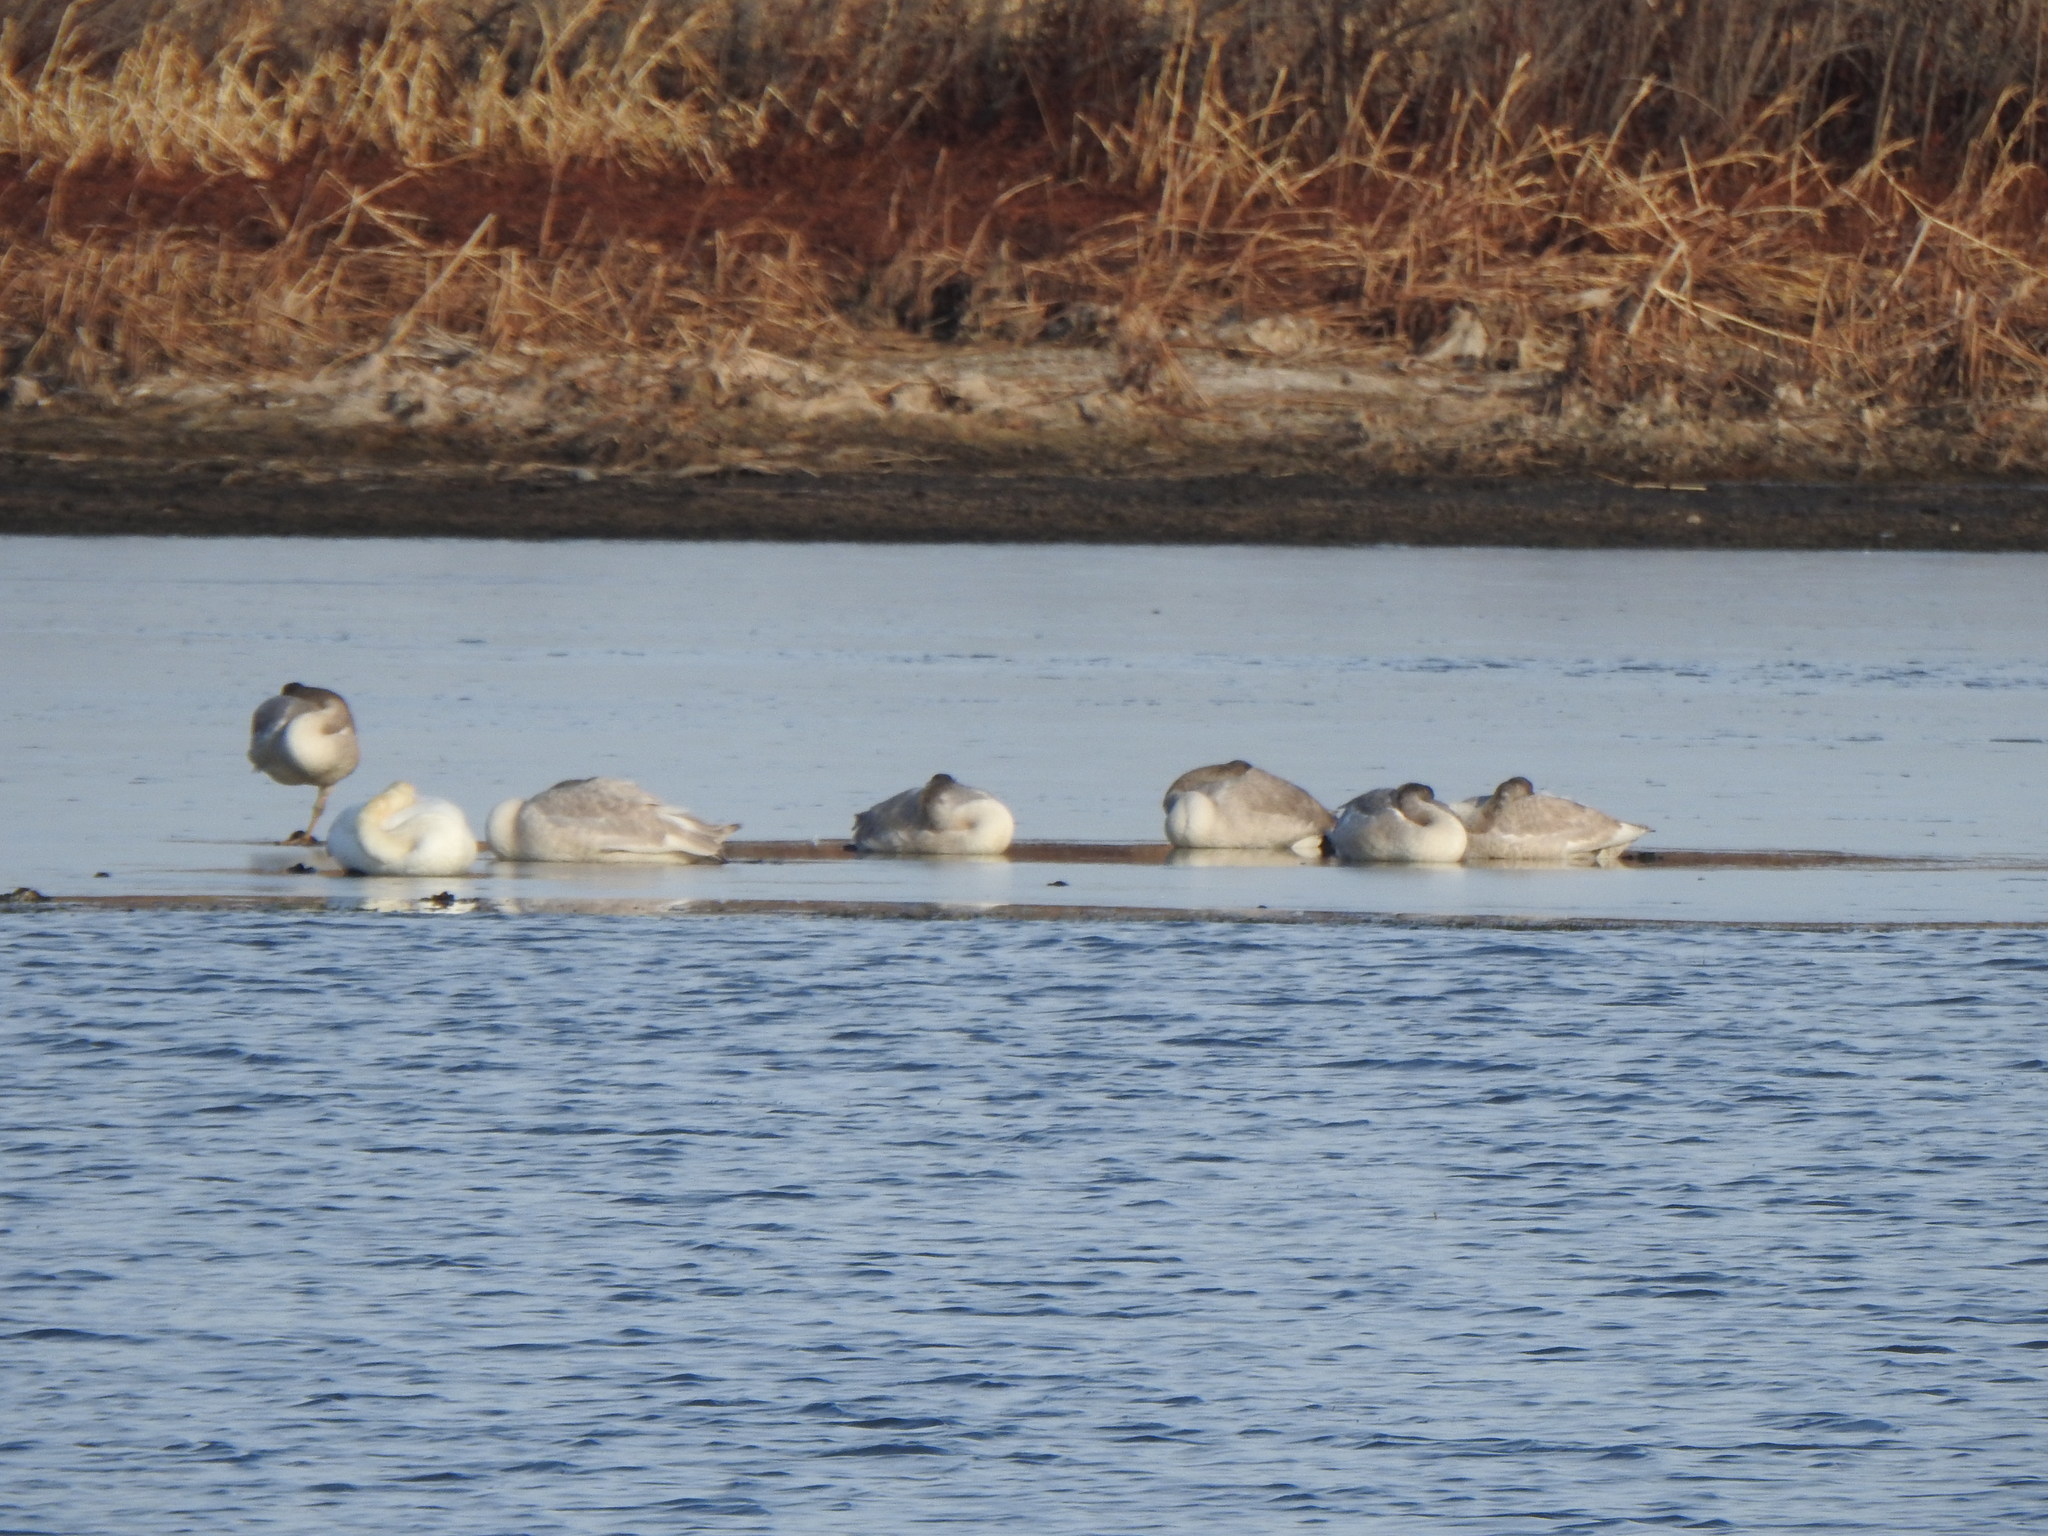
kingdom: Animalia
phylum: Chordata
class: Aves
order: Anseriformes
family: Anatidae
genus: Cygnus
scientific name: Cygnus buccinator
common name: Trumpeter swan
